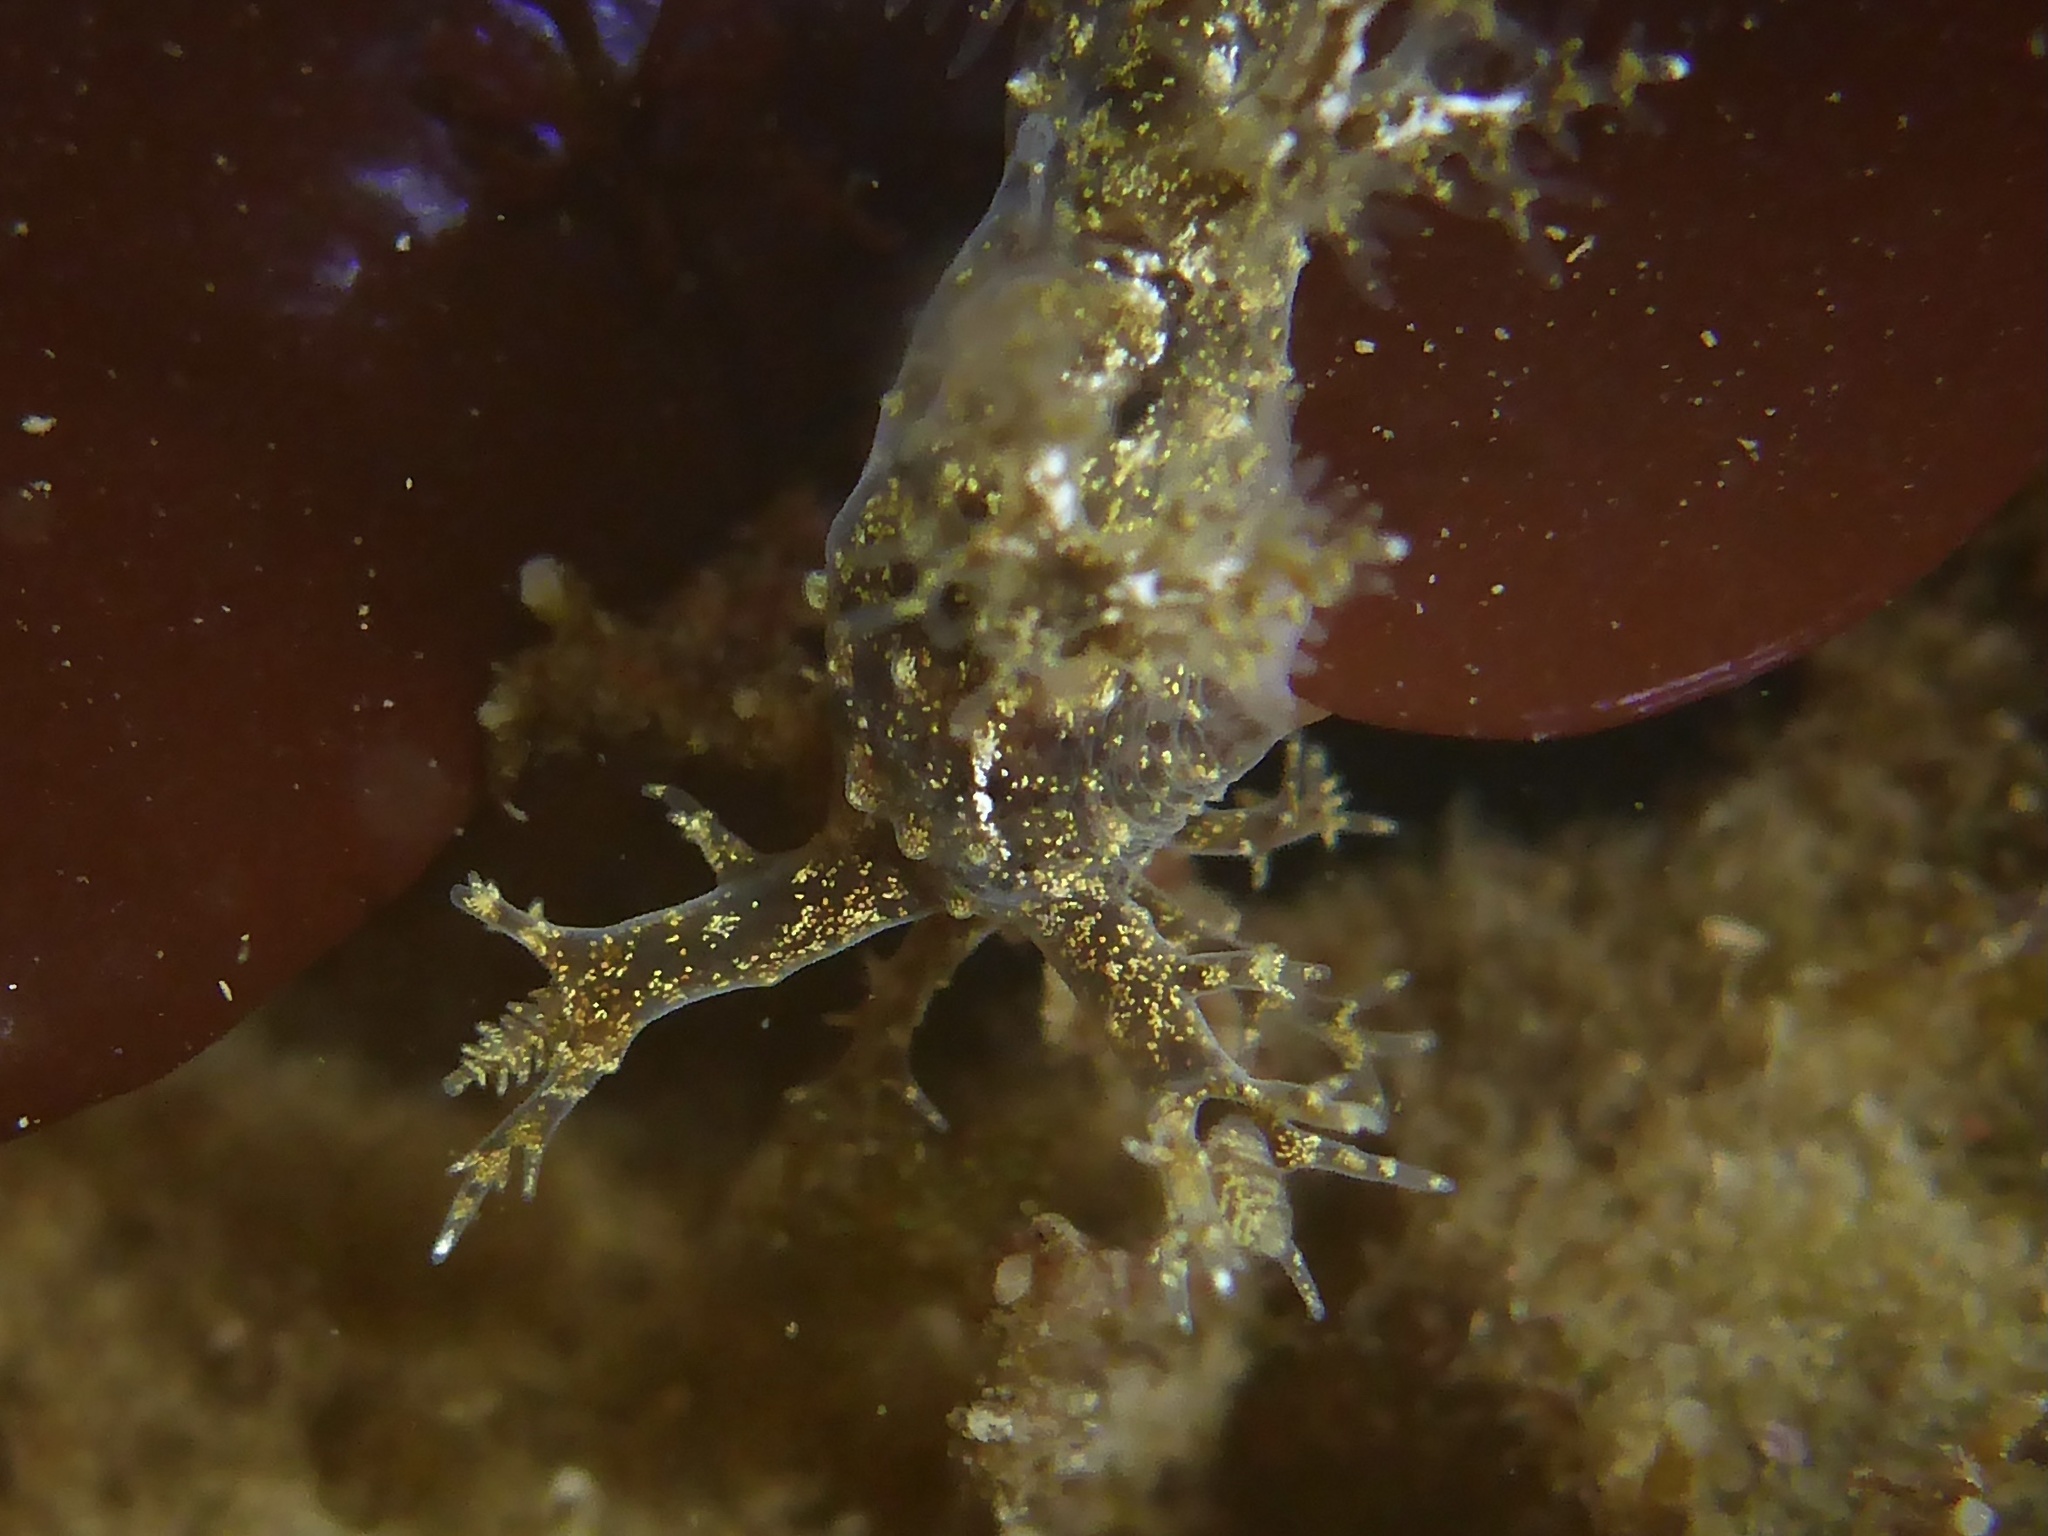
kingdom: Animalia
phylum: Mollusca
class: Gastropoda
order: Nudibranchia
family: Dendronotidae
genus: Dendronotus
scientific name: Dendronotus venustus
